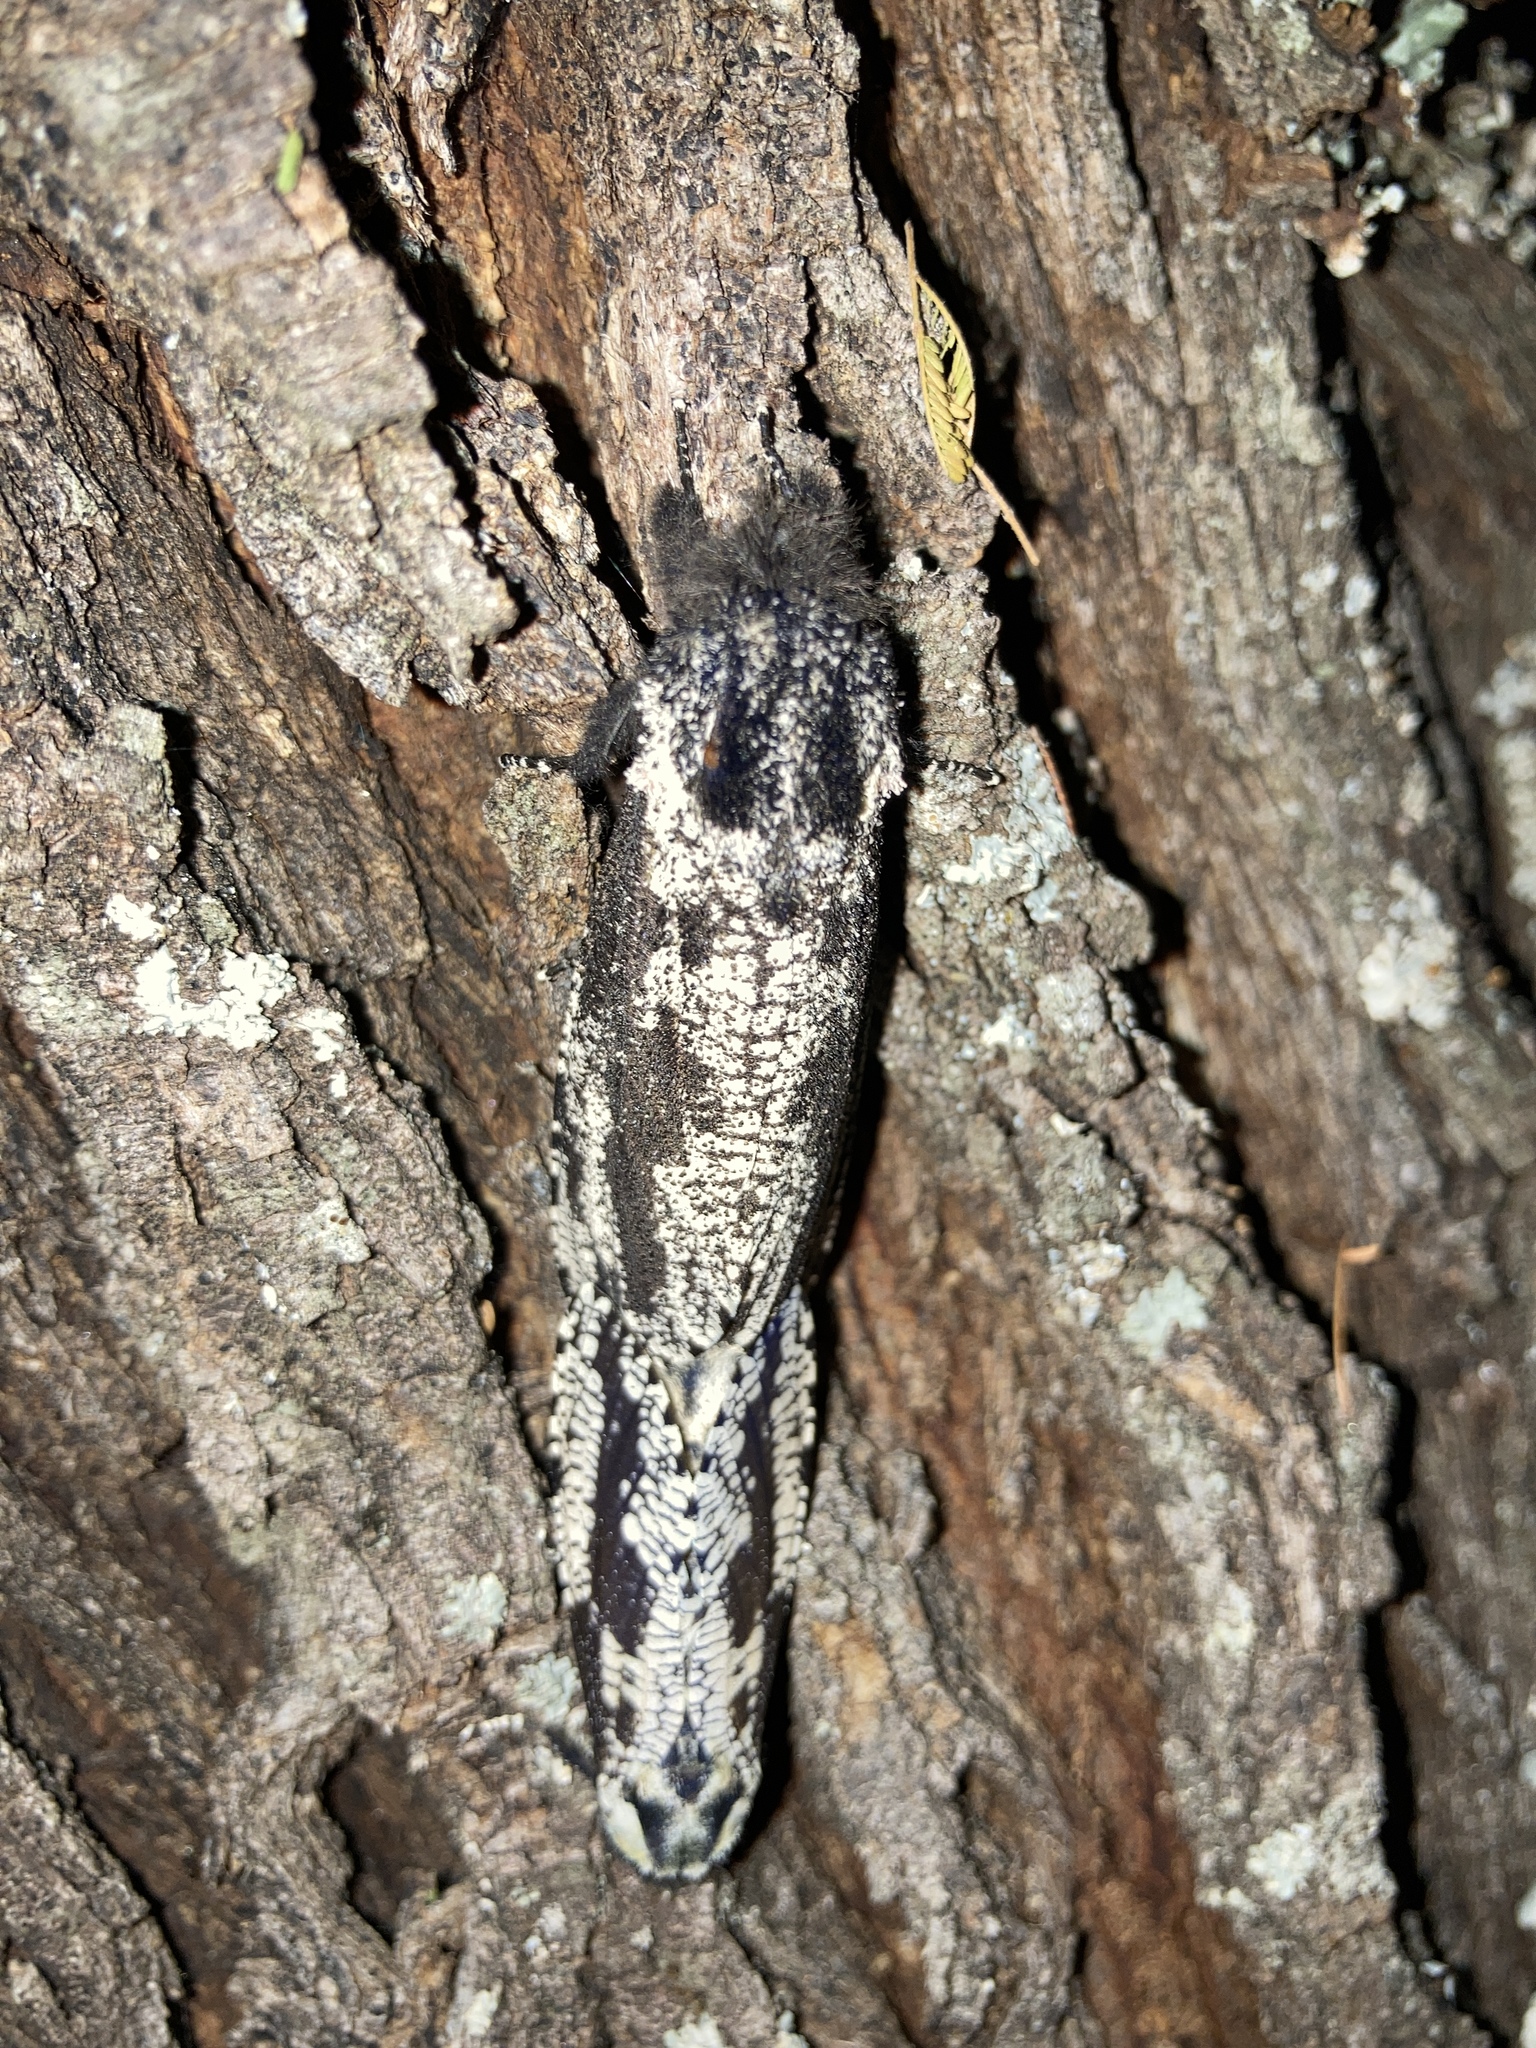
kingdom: Animalia
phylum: Arthropoda
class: Insecta
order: Lepidoptera
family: Cossidae
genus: Morpheis
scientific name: Morpheis melanoleuca
